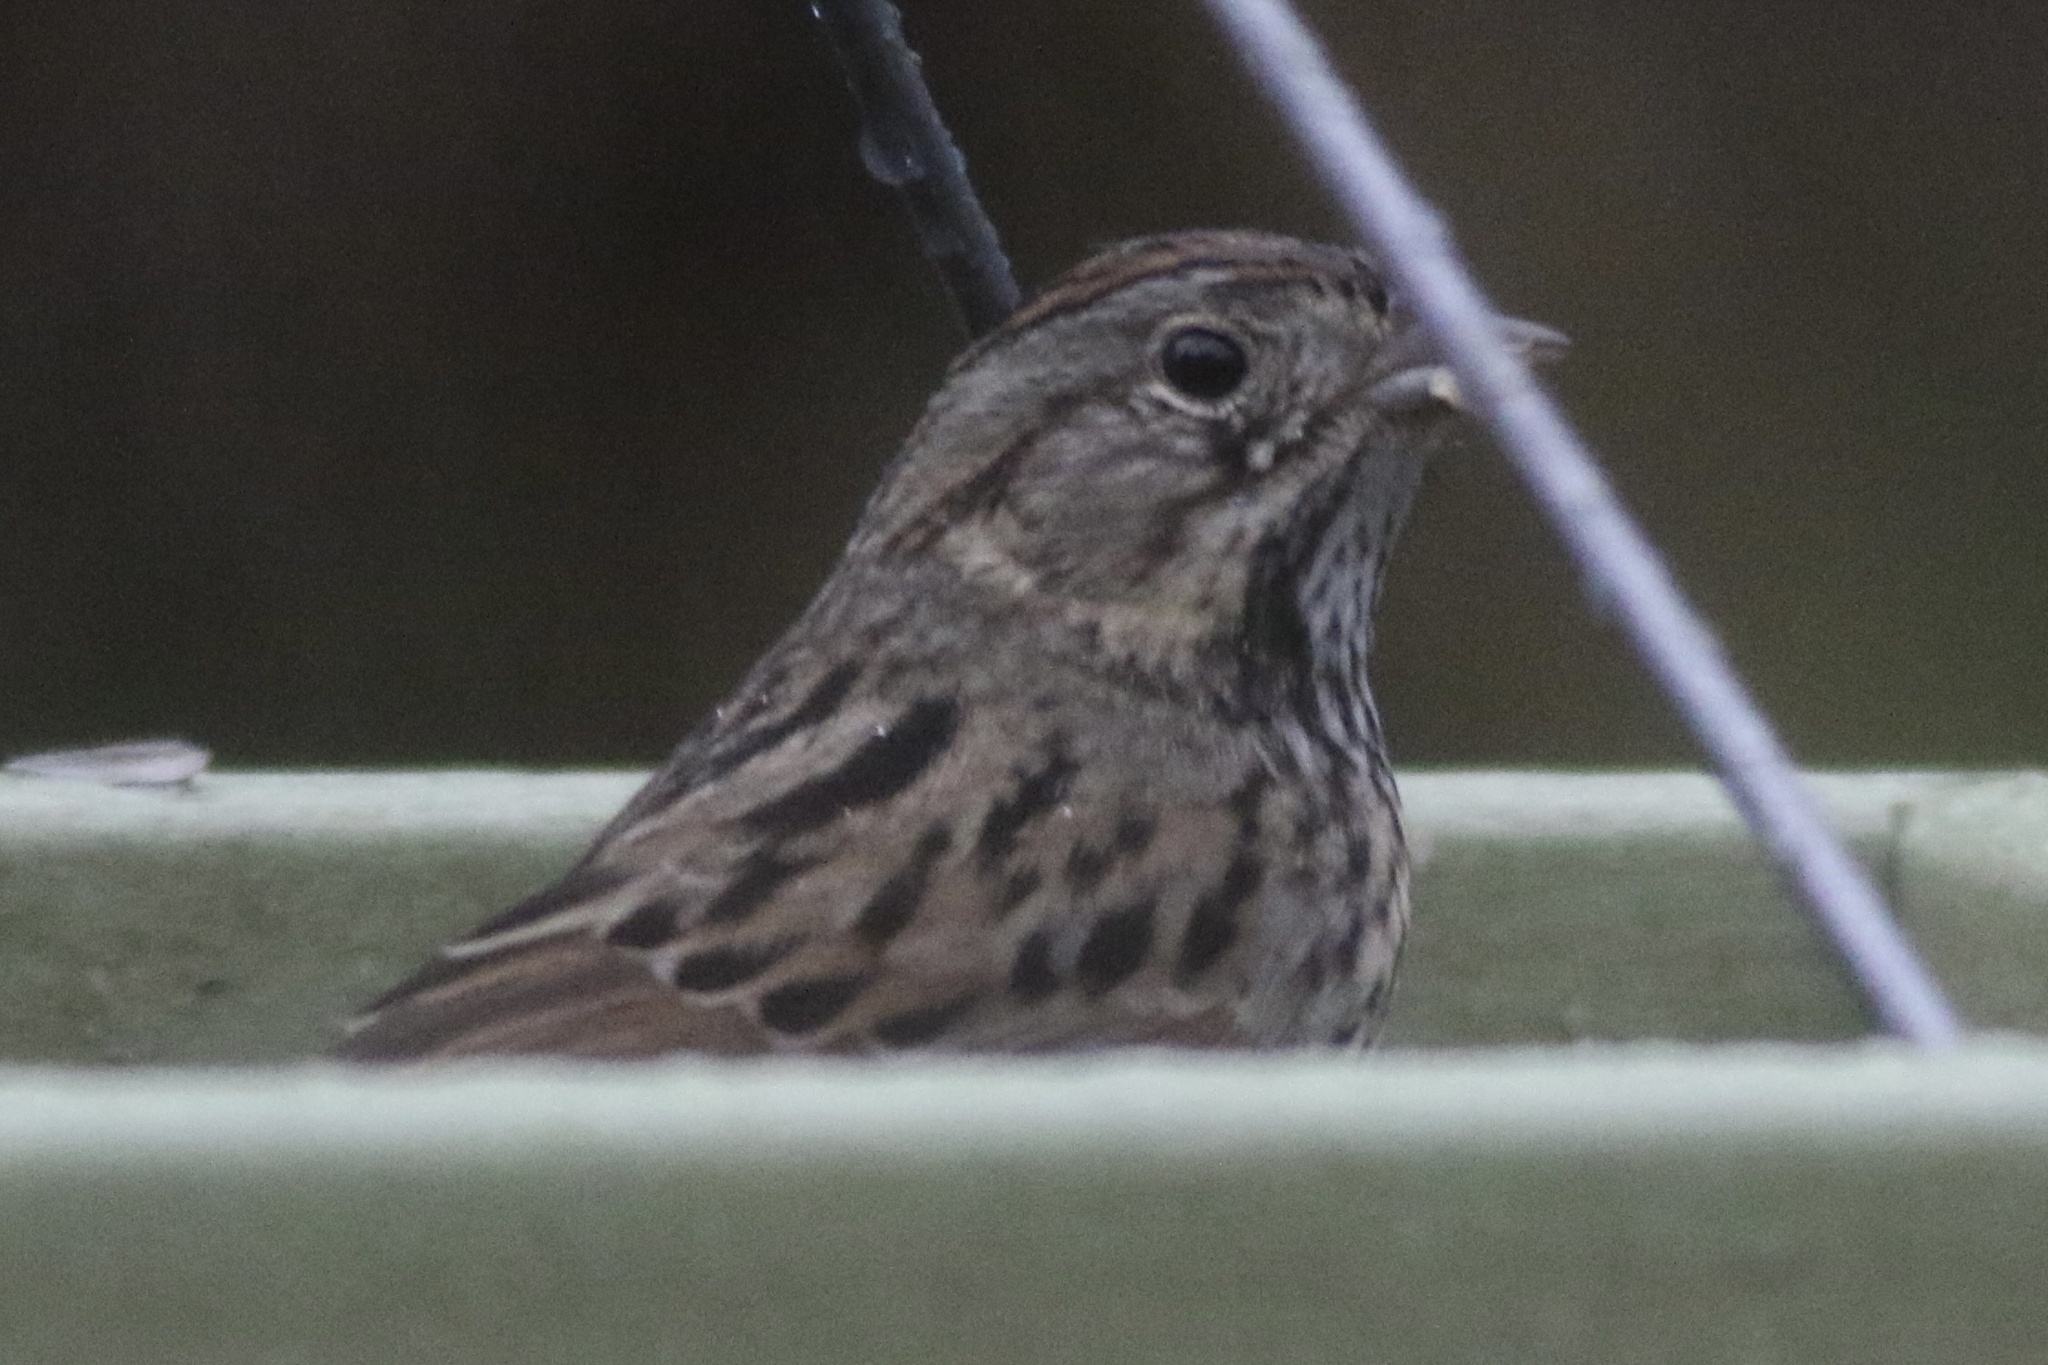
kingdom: Animalia
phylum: Chordata
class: Aves
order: Passeriformes
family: Passerellidae
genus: Melospiza
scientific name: Melospiza lincolnii
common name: Lincoln's sparrow
